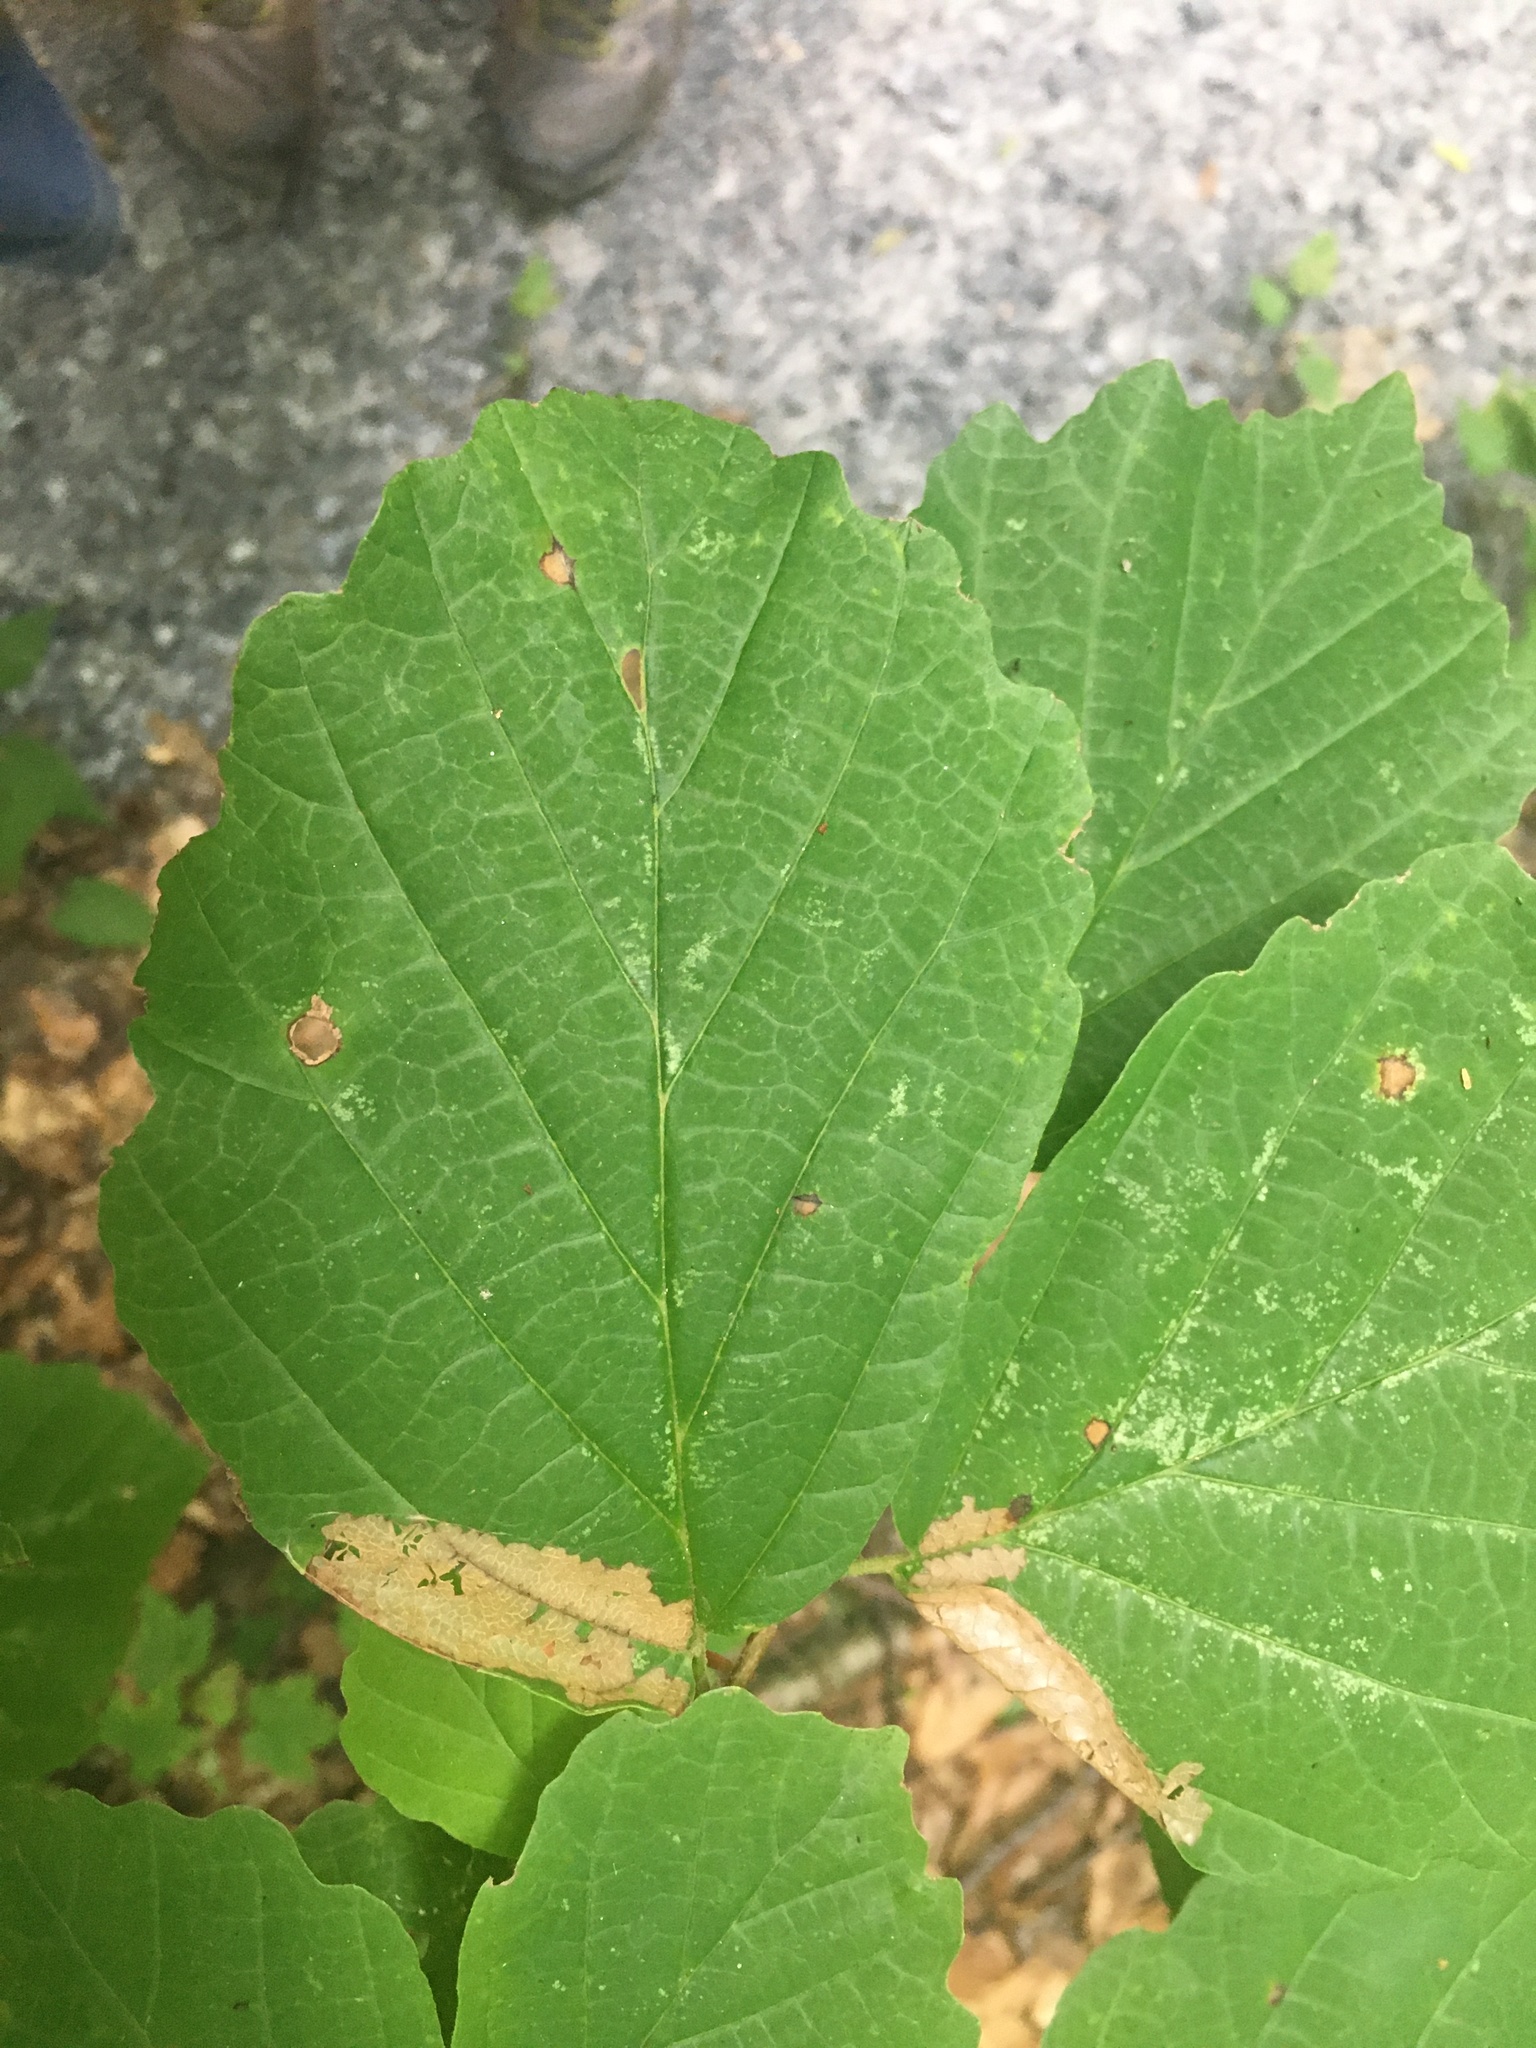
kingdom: Plantae
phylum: Tracheophyta
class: Magnoliopsida
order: Saxifragales
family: Hamamelidaceae
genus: Hamamelis
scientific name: Hamamelis virginiana
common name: Witch-hazel
